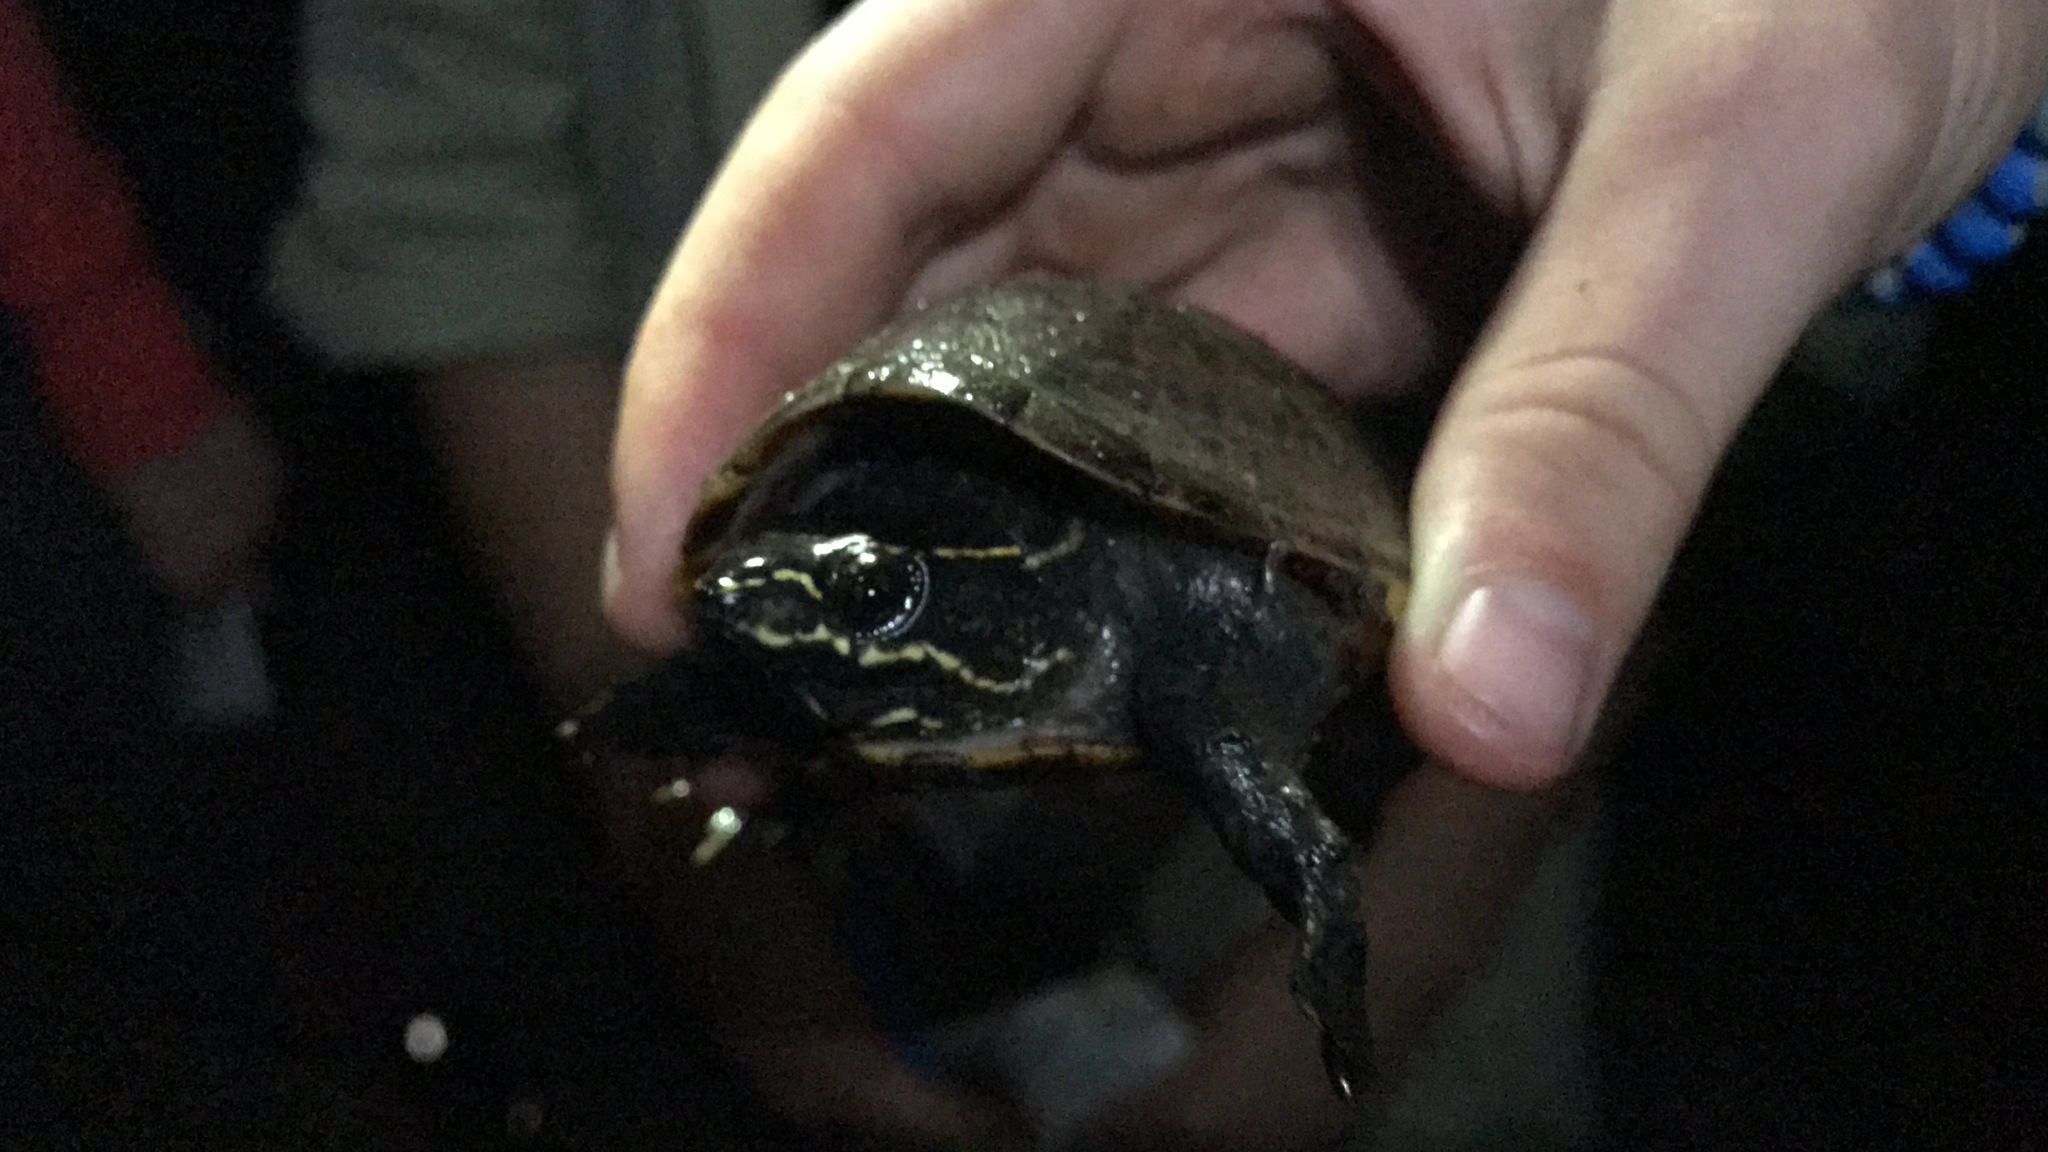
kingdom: Animalia
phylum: Chordata
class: Testudines
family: Kinosternidae
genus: Sternotherus
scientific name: Sternotherus odoratus
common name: Common musk turtle
